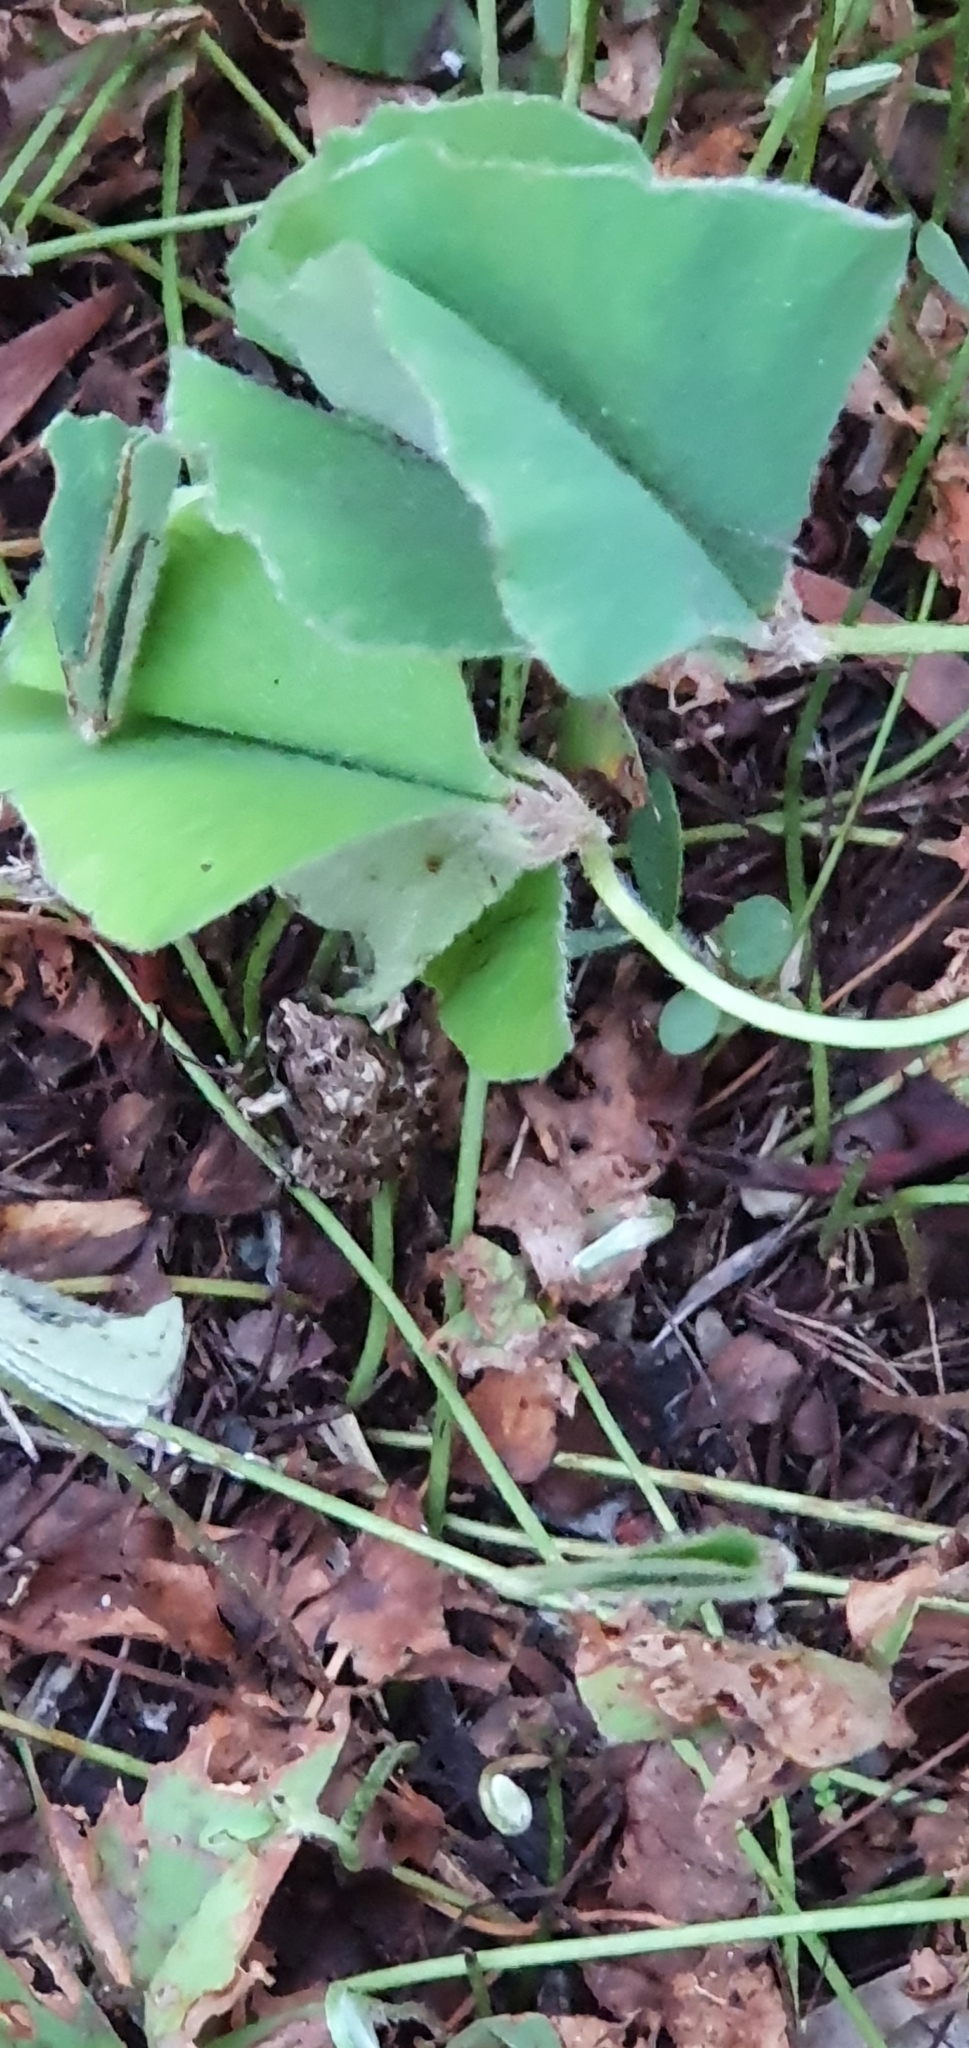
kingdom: Animalia
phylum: Chordata
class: Amphibia
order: Anura
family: Limnodynastidae
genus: Platyplectrum
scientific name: Platyplectrum ornatum
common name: Ornate burrowing frog
